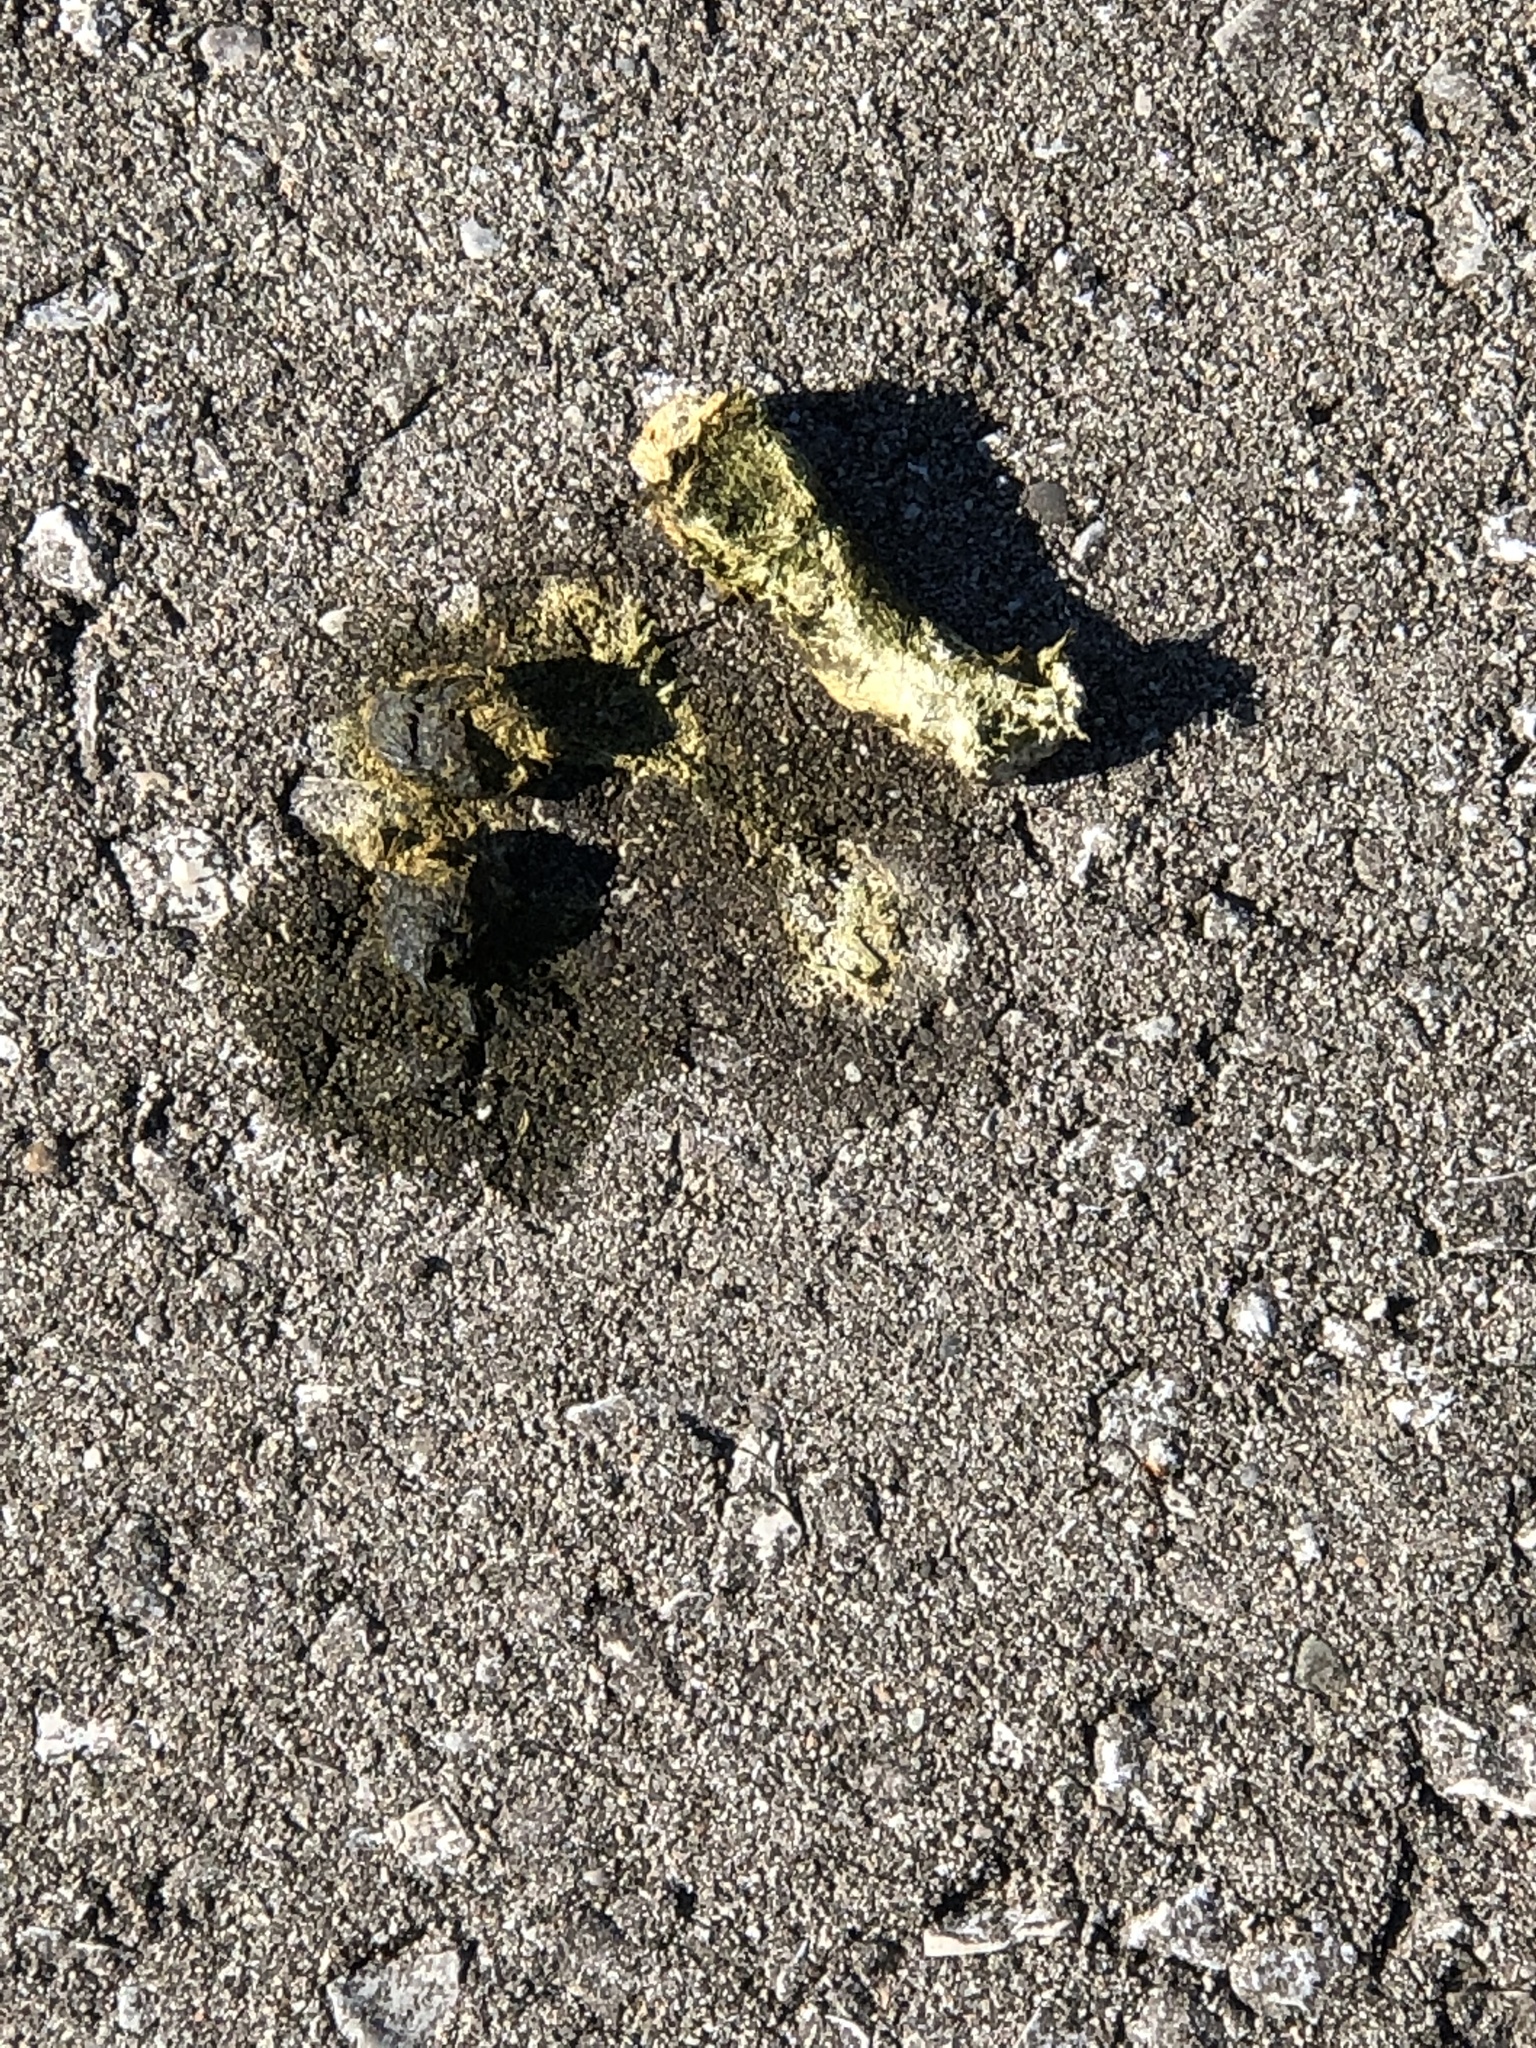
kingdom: Animalia
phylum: Chordata
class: Aves
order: Anseriformes
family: Anatidae
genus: Branta
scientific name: Branta canadensis
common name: Canada goose
